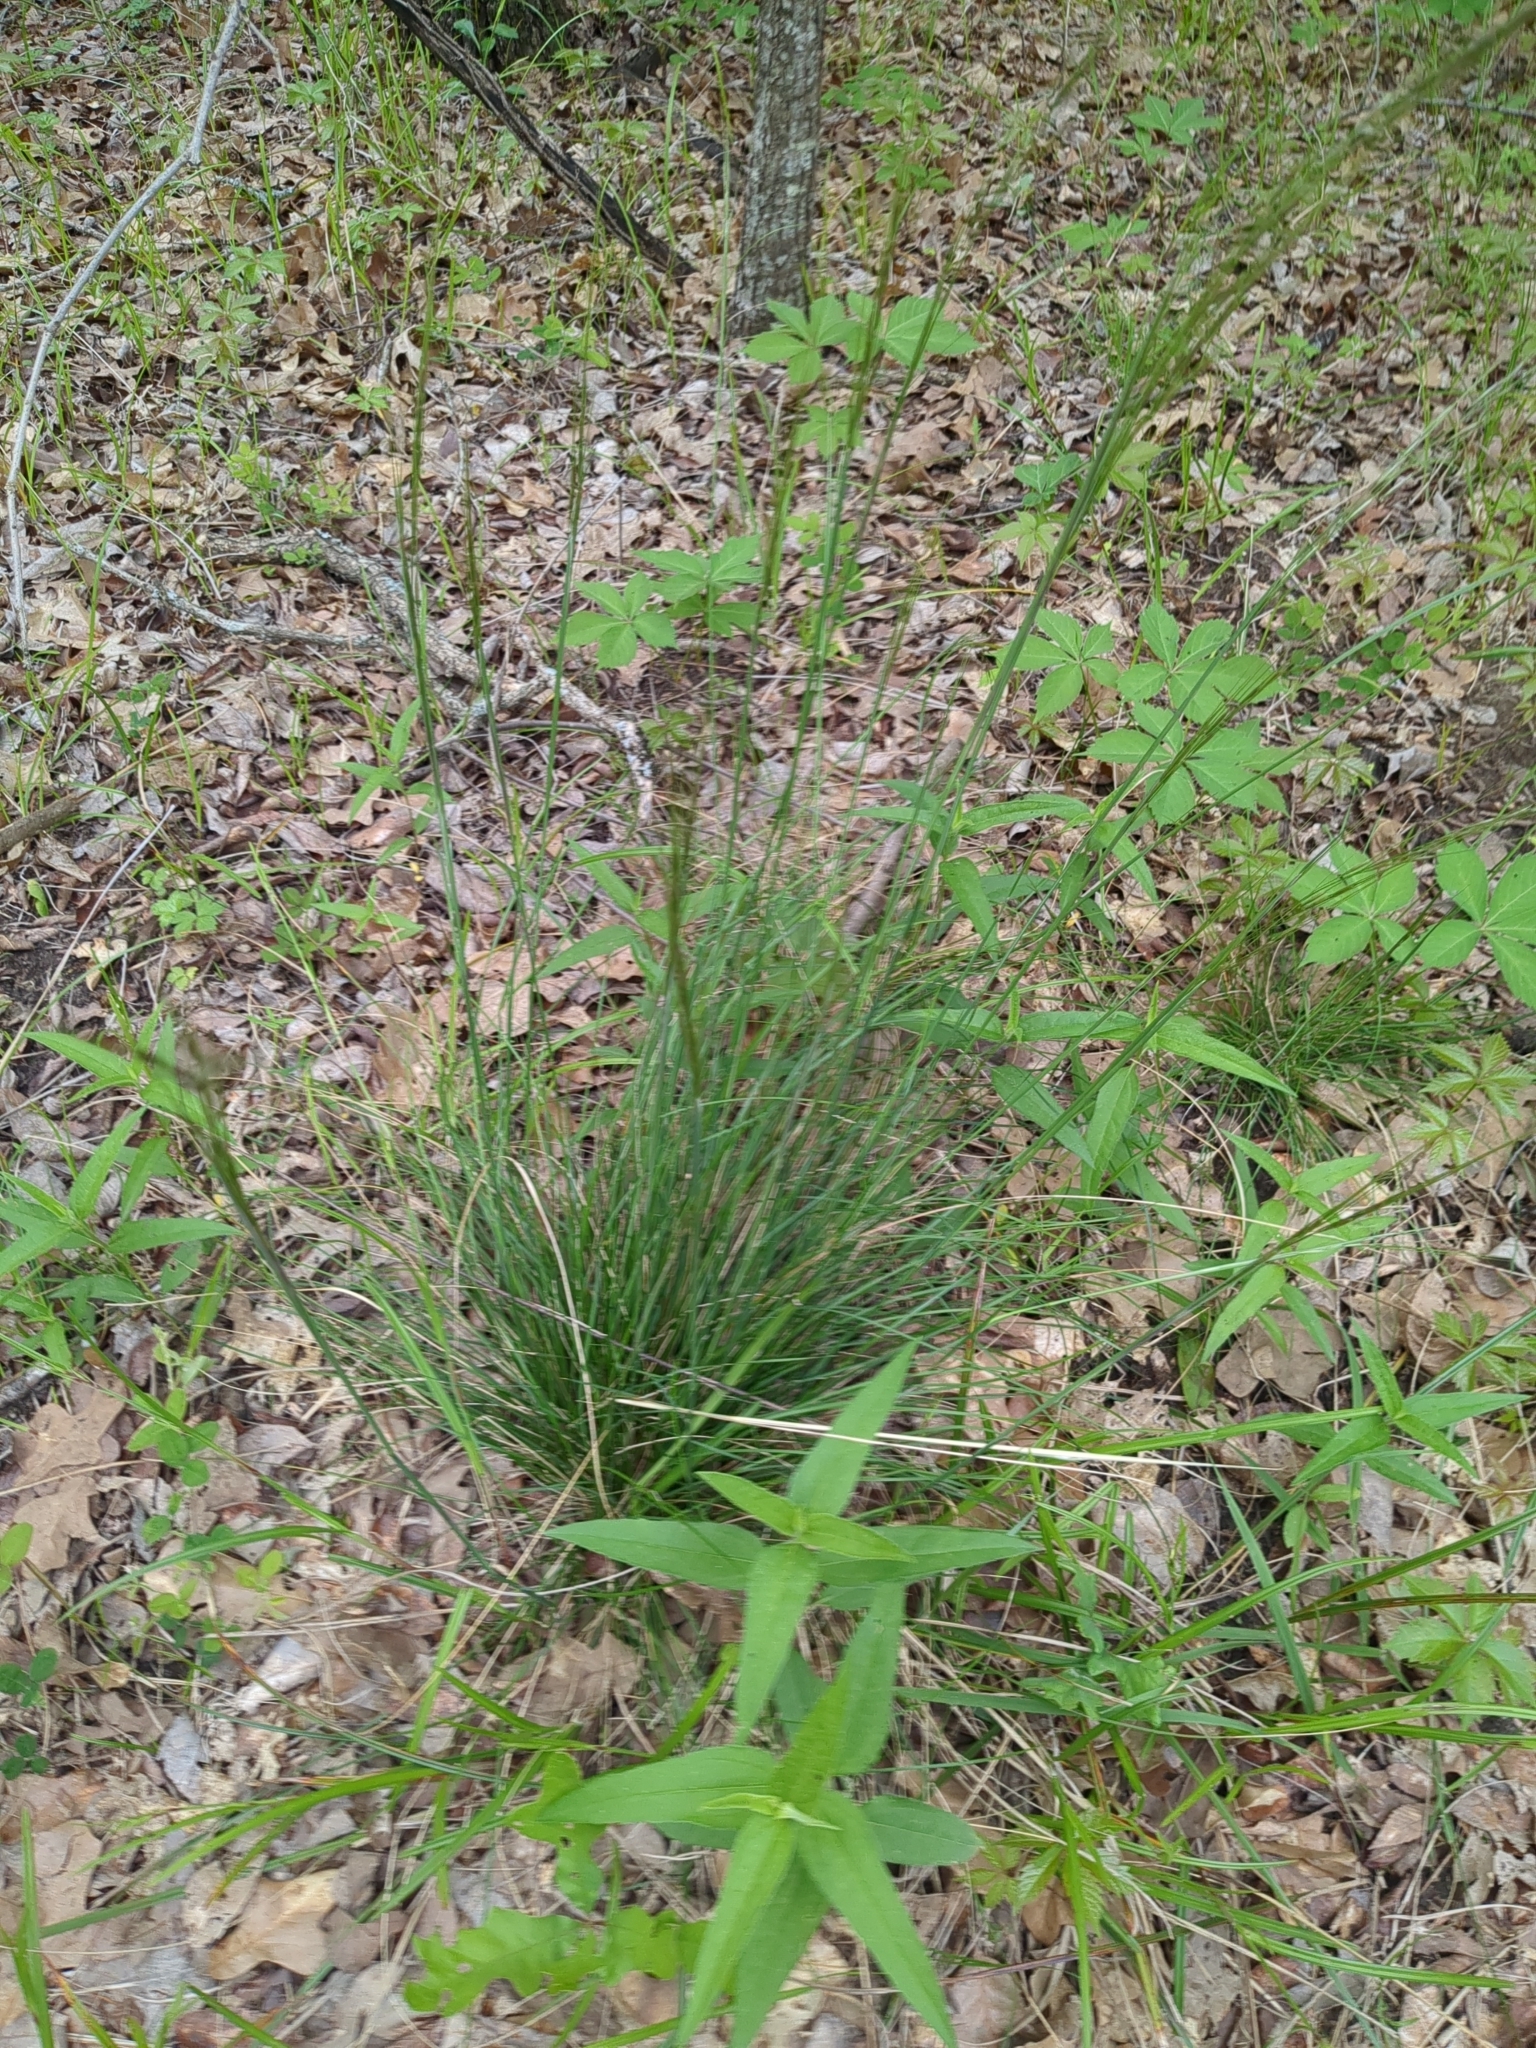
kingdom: Plantae
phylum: Tracheophyta
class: Liliopsida
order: Poales
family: Poaceae
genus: Nassella
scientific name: Nassella leucotricha
